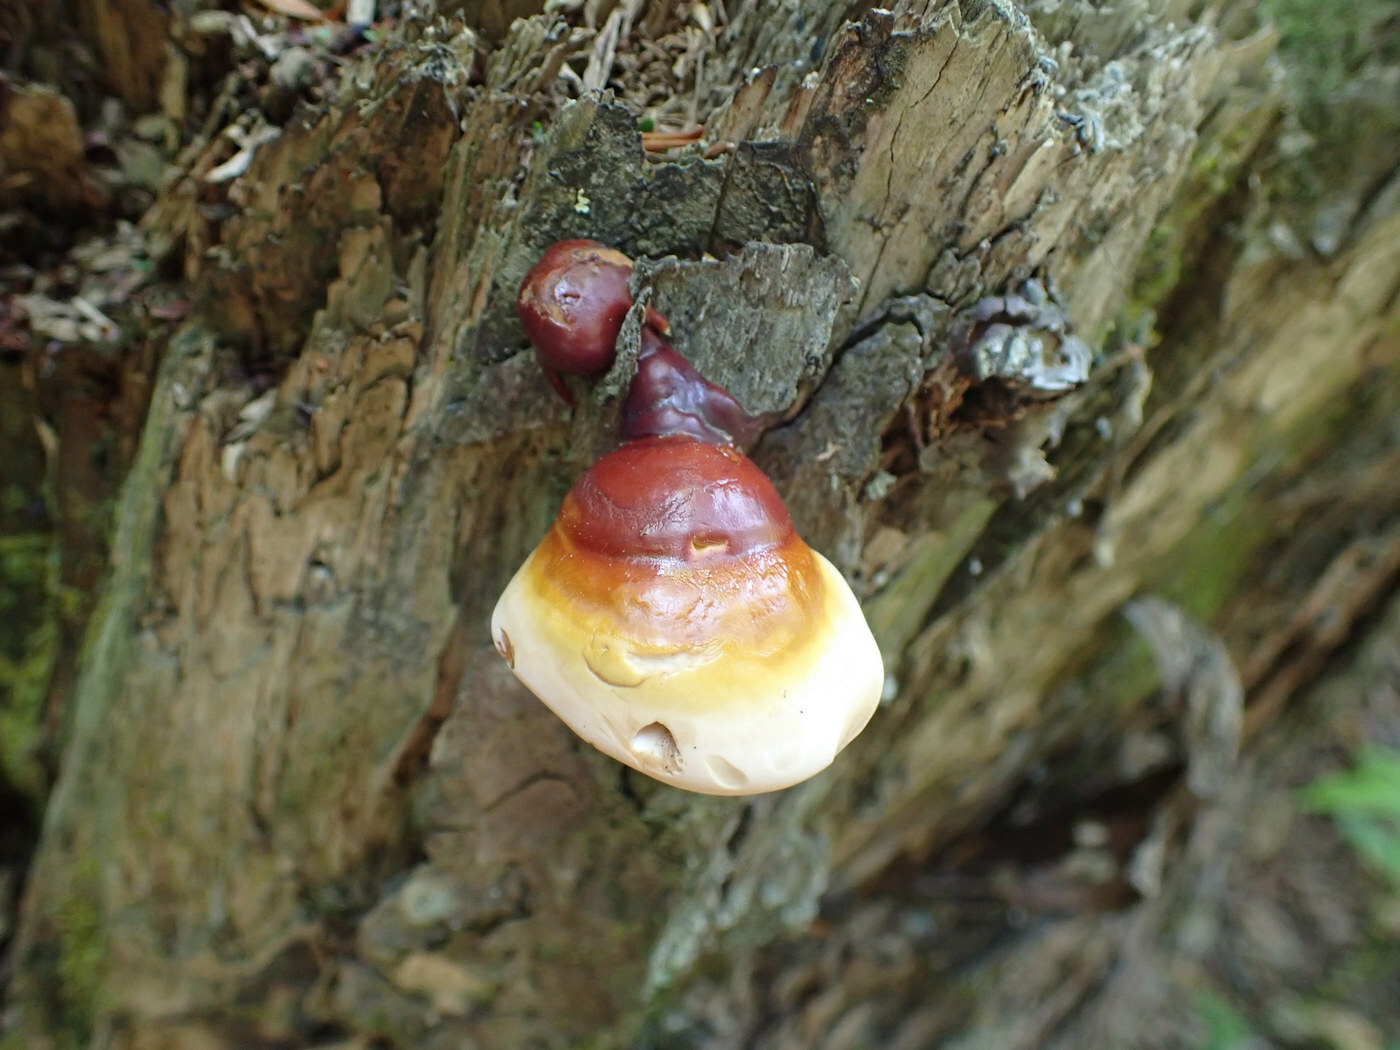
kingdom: Fungi
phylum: Basidiomycota
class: Agaricomycetes
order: Polyporales
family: Polyporaceae
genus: Ganoderma
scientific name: Ganoderma tsugae
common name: Hemlock varnish shelf
